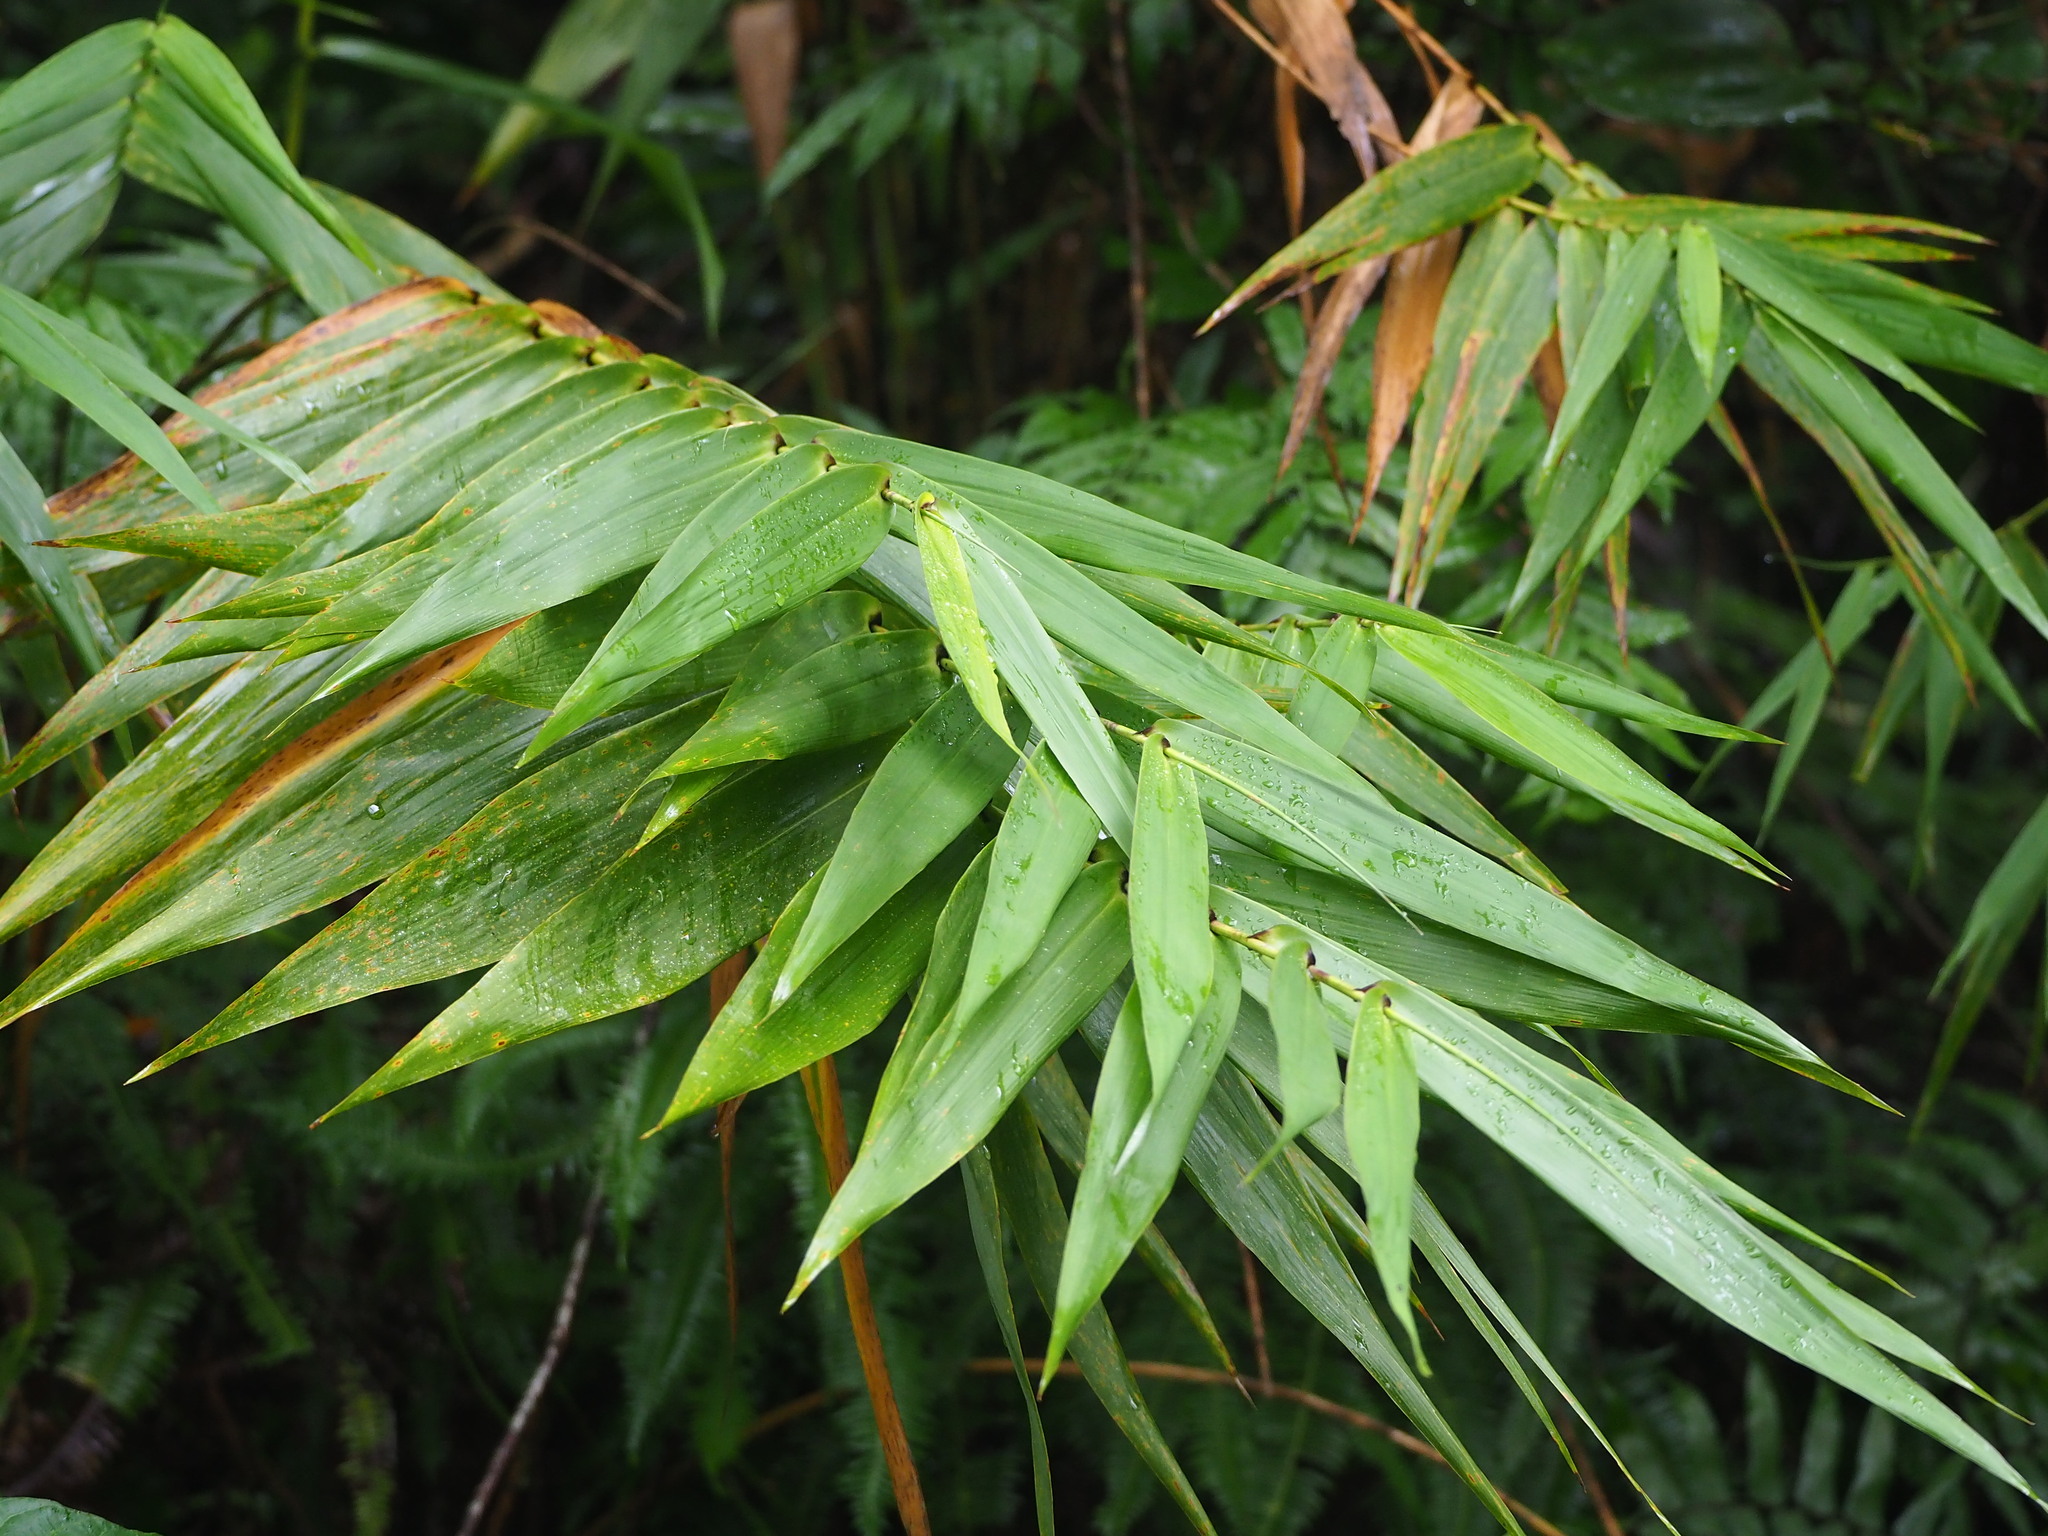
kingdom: Plantae
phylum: Tracheophyta
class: Liliopsida
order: Poales
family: Poaceae
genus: Thysanolaena
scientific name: Thysanolaena latifolia
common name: Tiger grass
